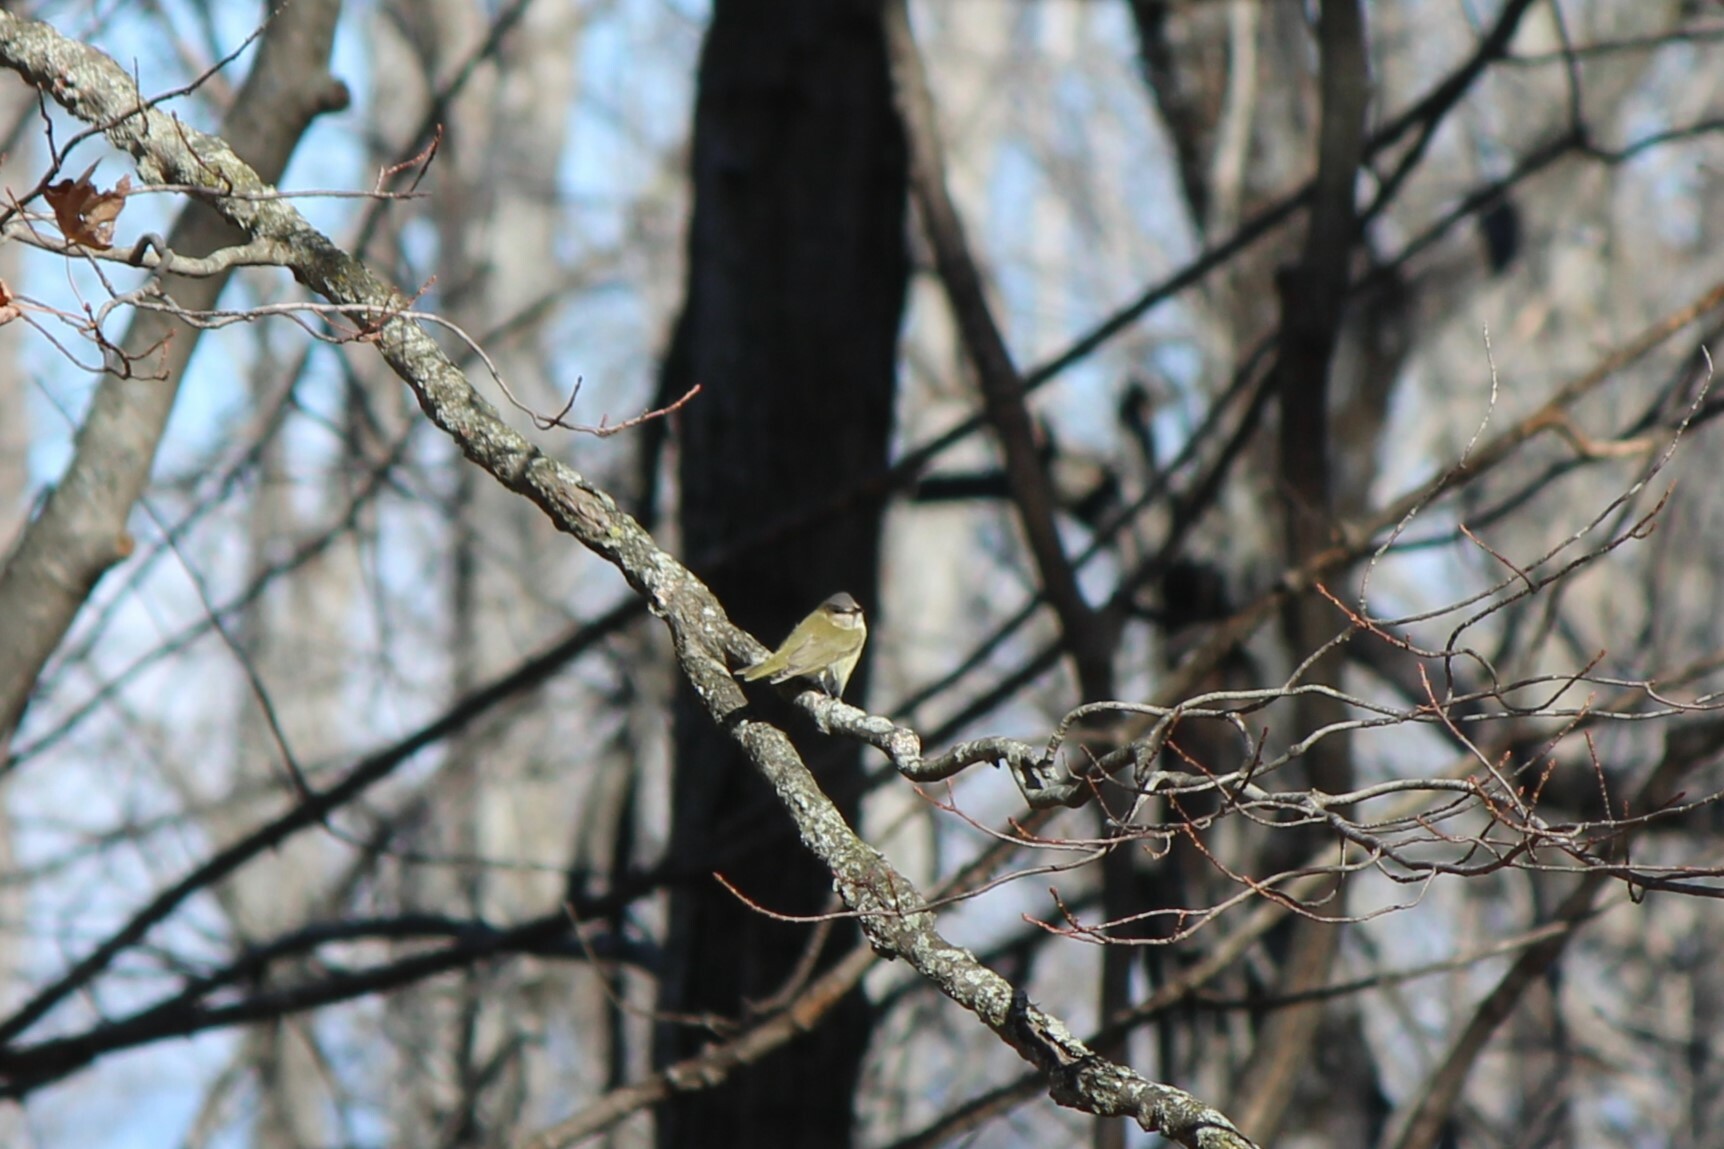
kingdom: Animalia
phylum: Chordata
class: Aves
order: Passeriformes
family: Vireonidae
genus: Vireo
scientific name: Vireo olivaceus
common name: Red-eyed vireo
